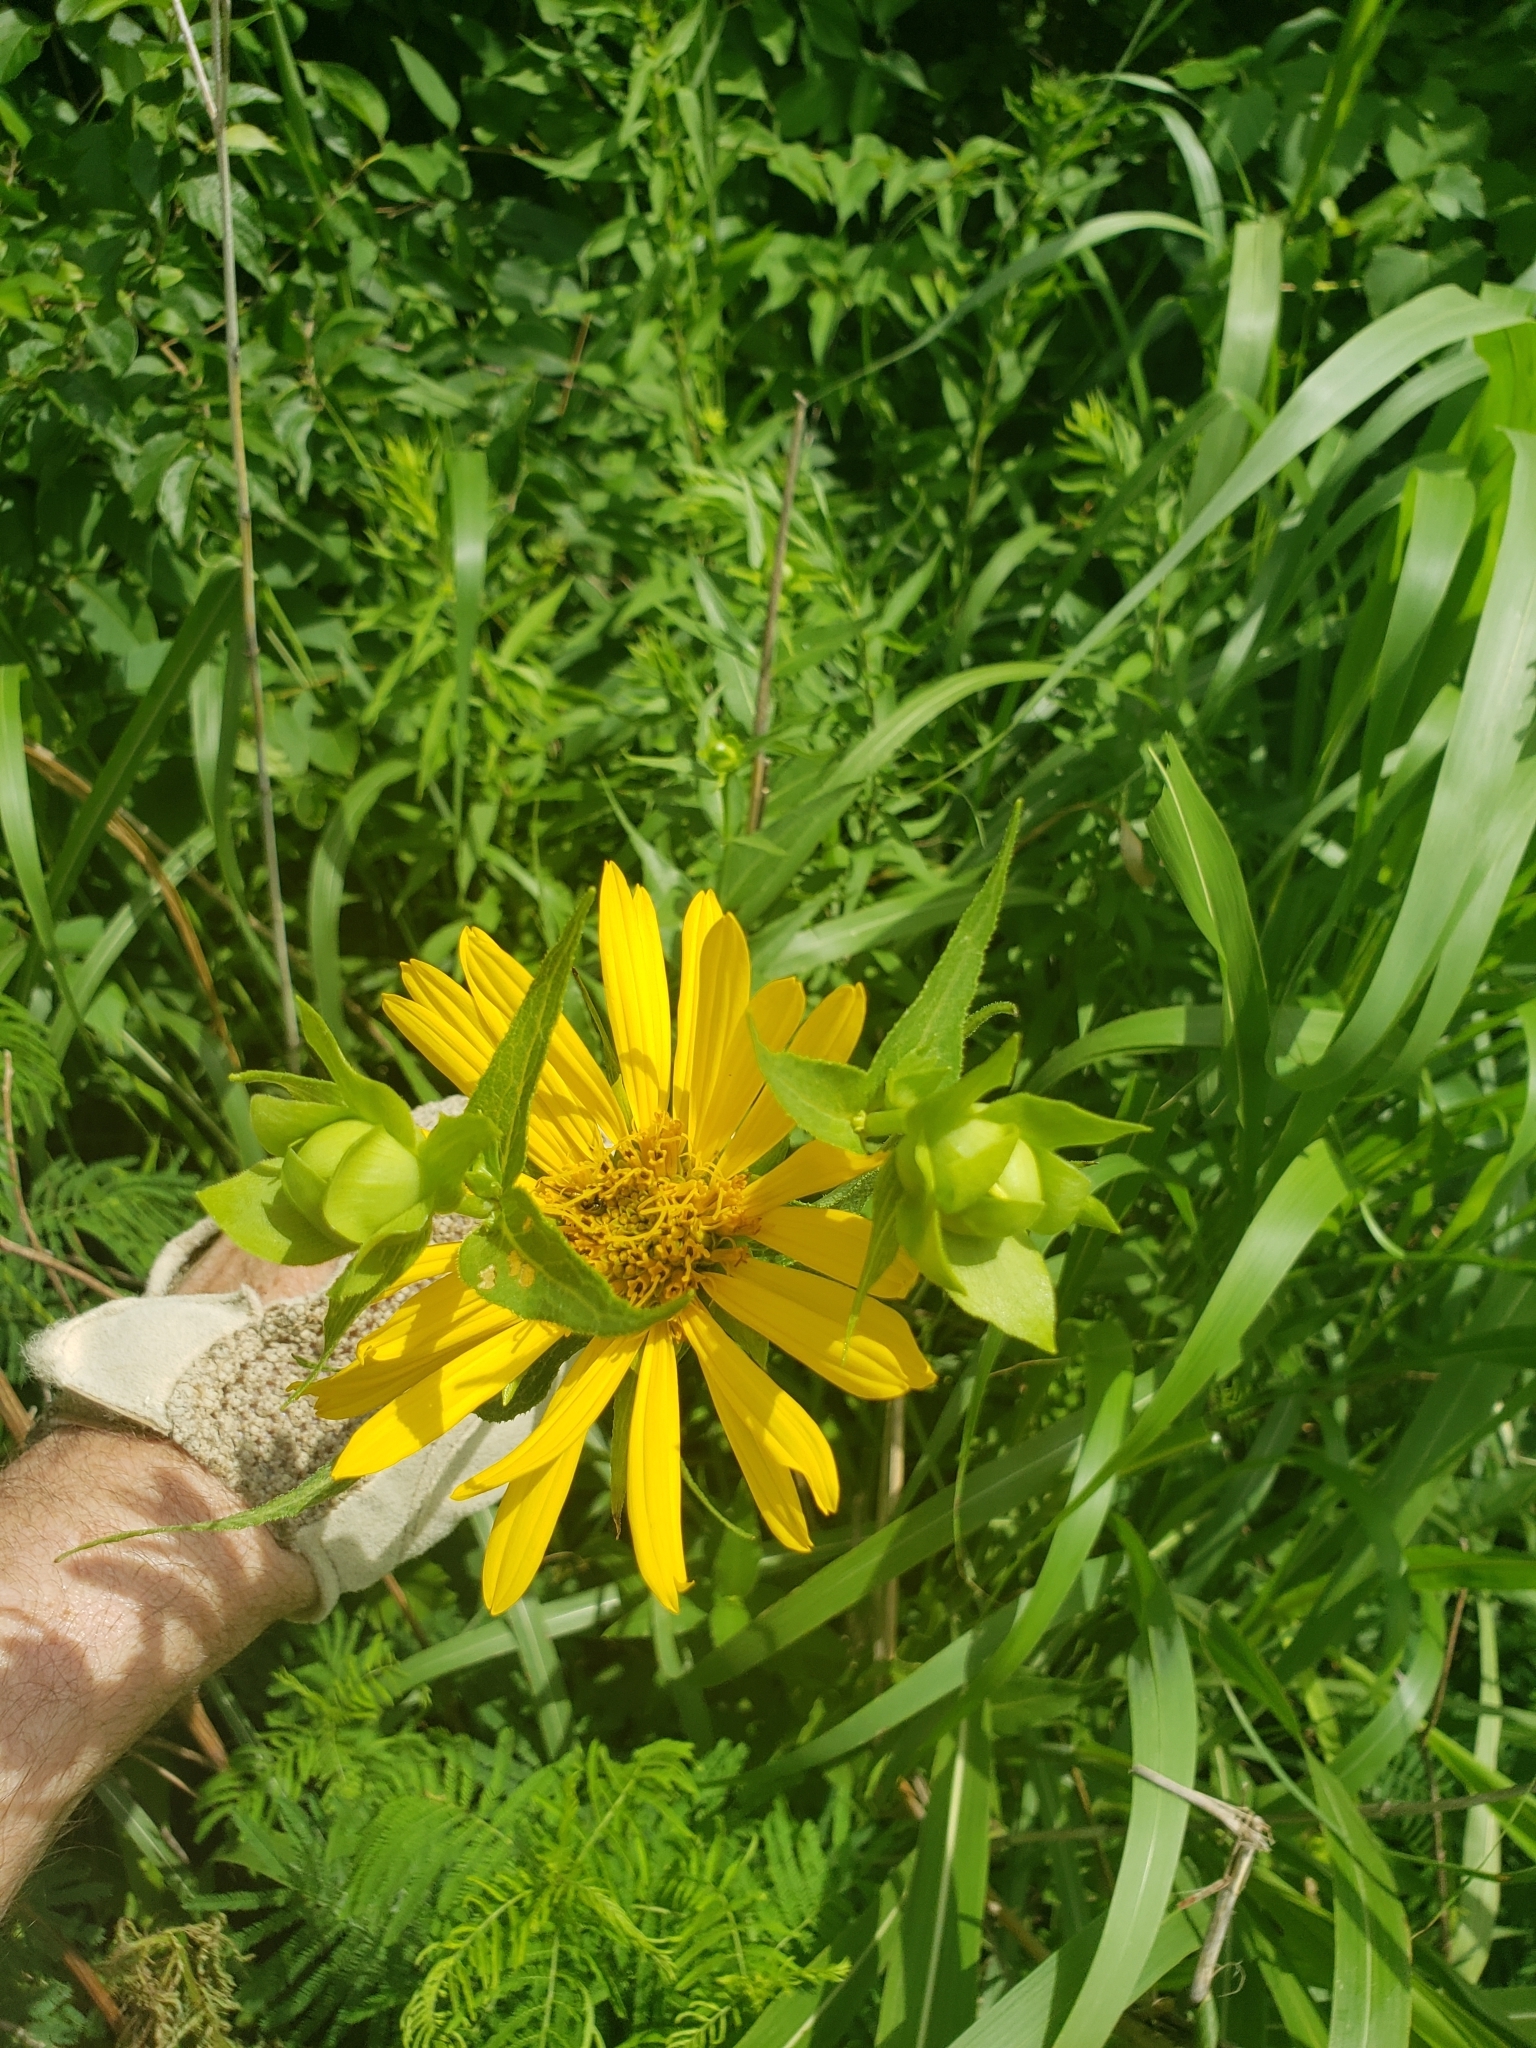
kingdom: Plantae
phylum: Tracheophyta
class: Magnoliopsida
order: Asterales
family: Asteraceae
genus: Silphium
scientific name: Silphium integrifolium
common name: Whole-leaf rosinweed
